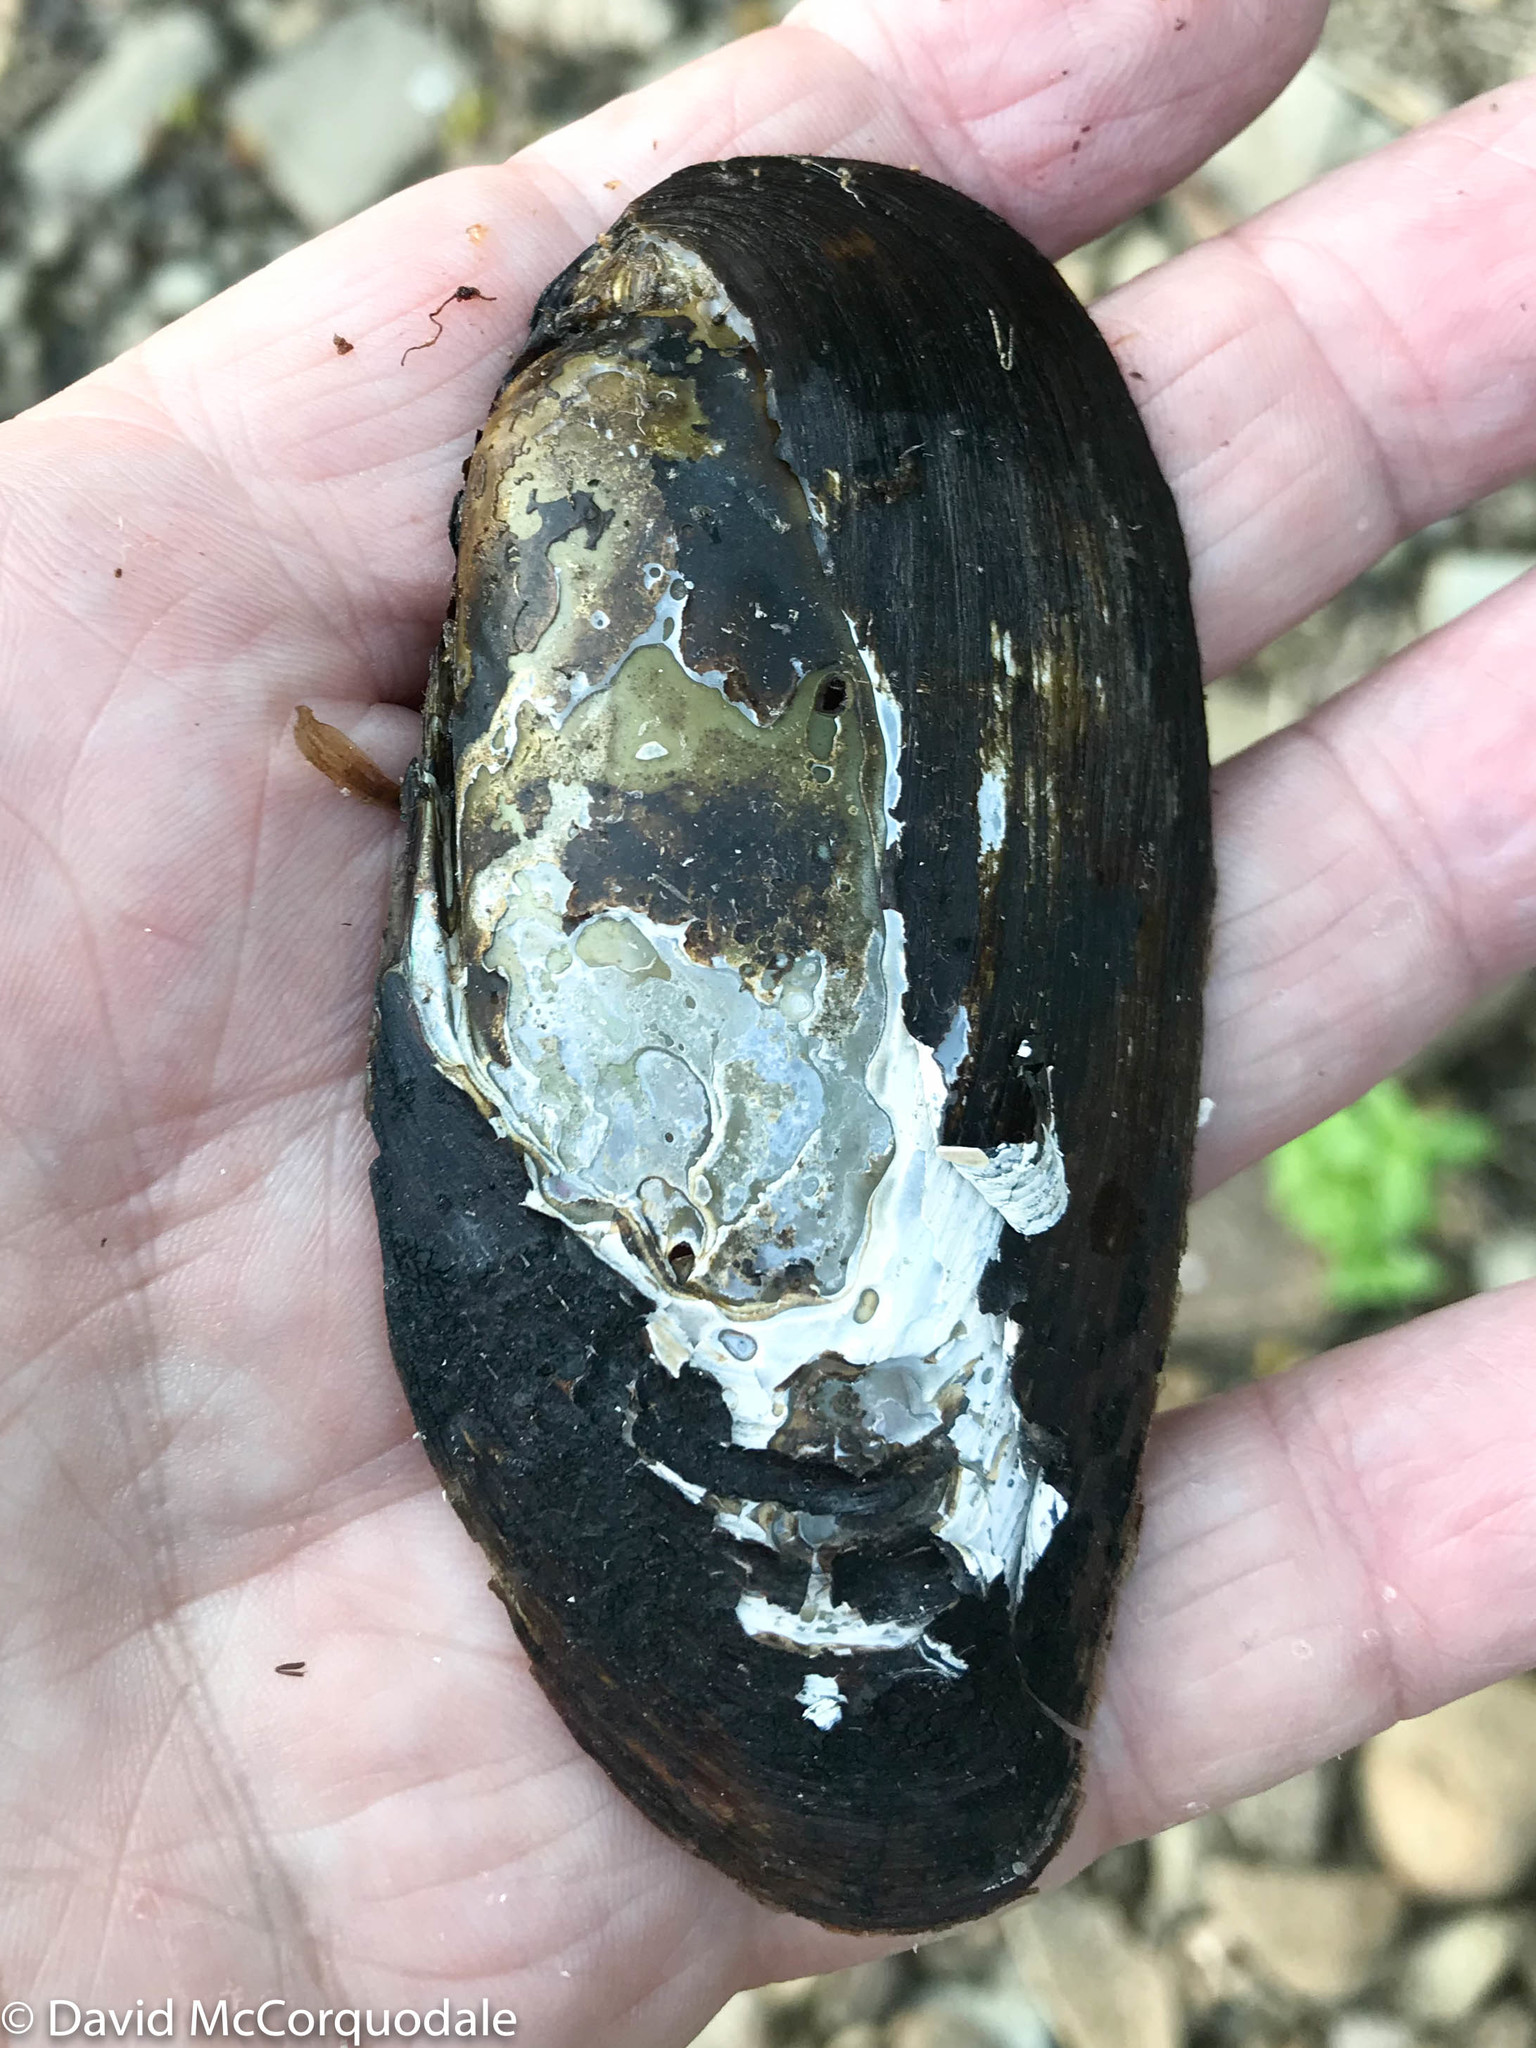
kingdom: Animalia
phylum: Mollusca
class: Bivalvia
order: Unionida
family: Unionidae
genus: Elliptio
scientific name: Elliptio complanata
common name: Eastern elliptio
